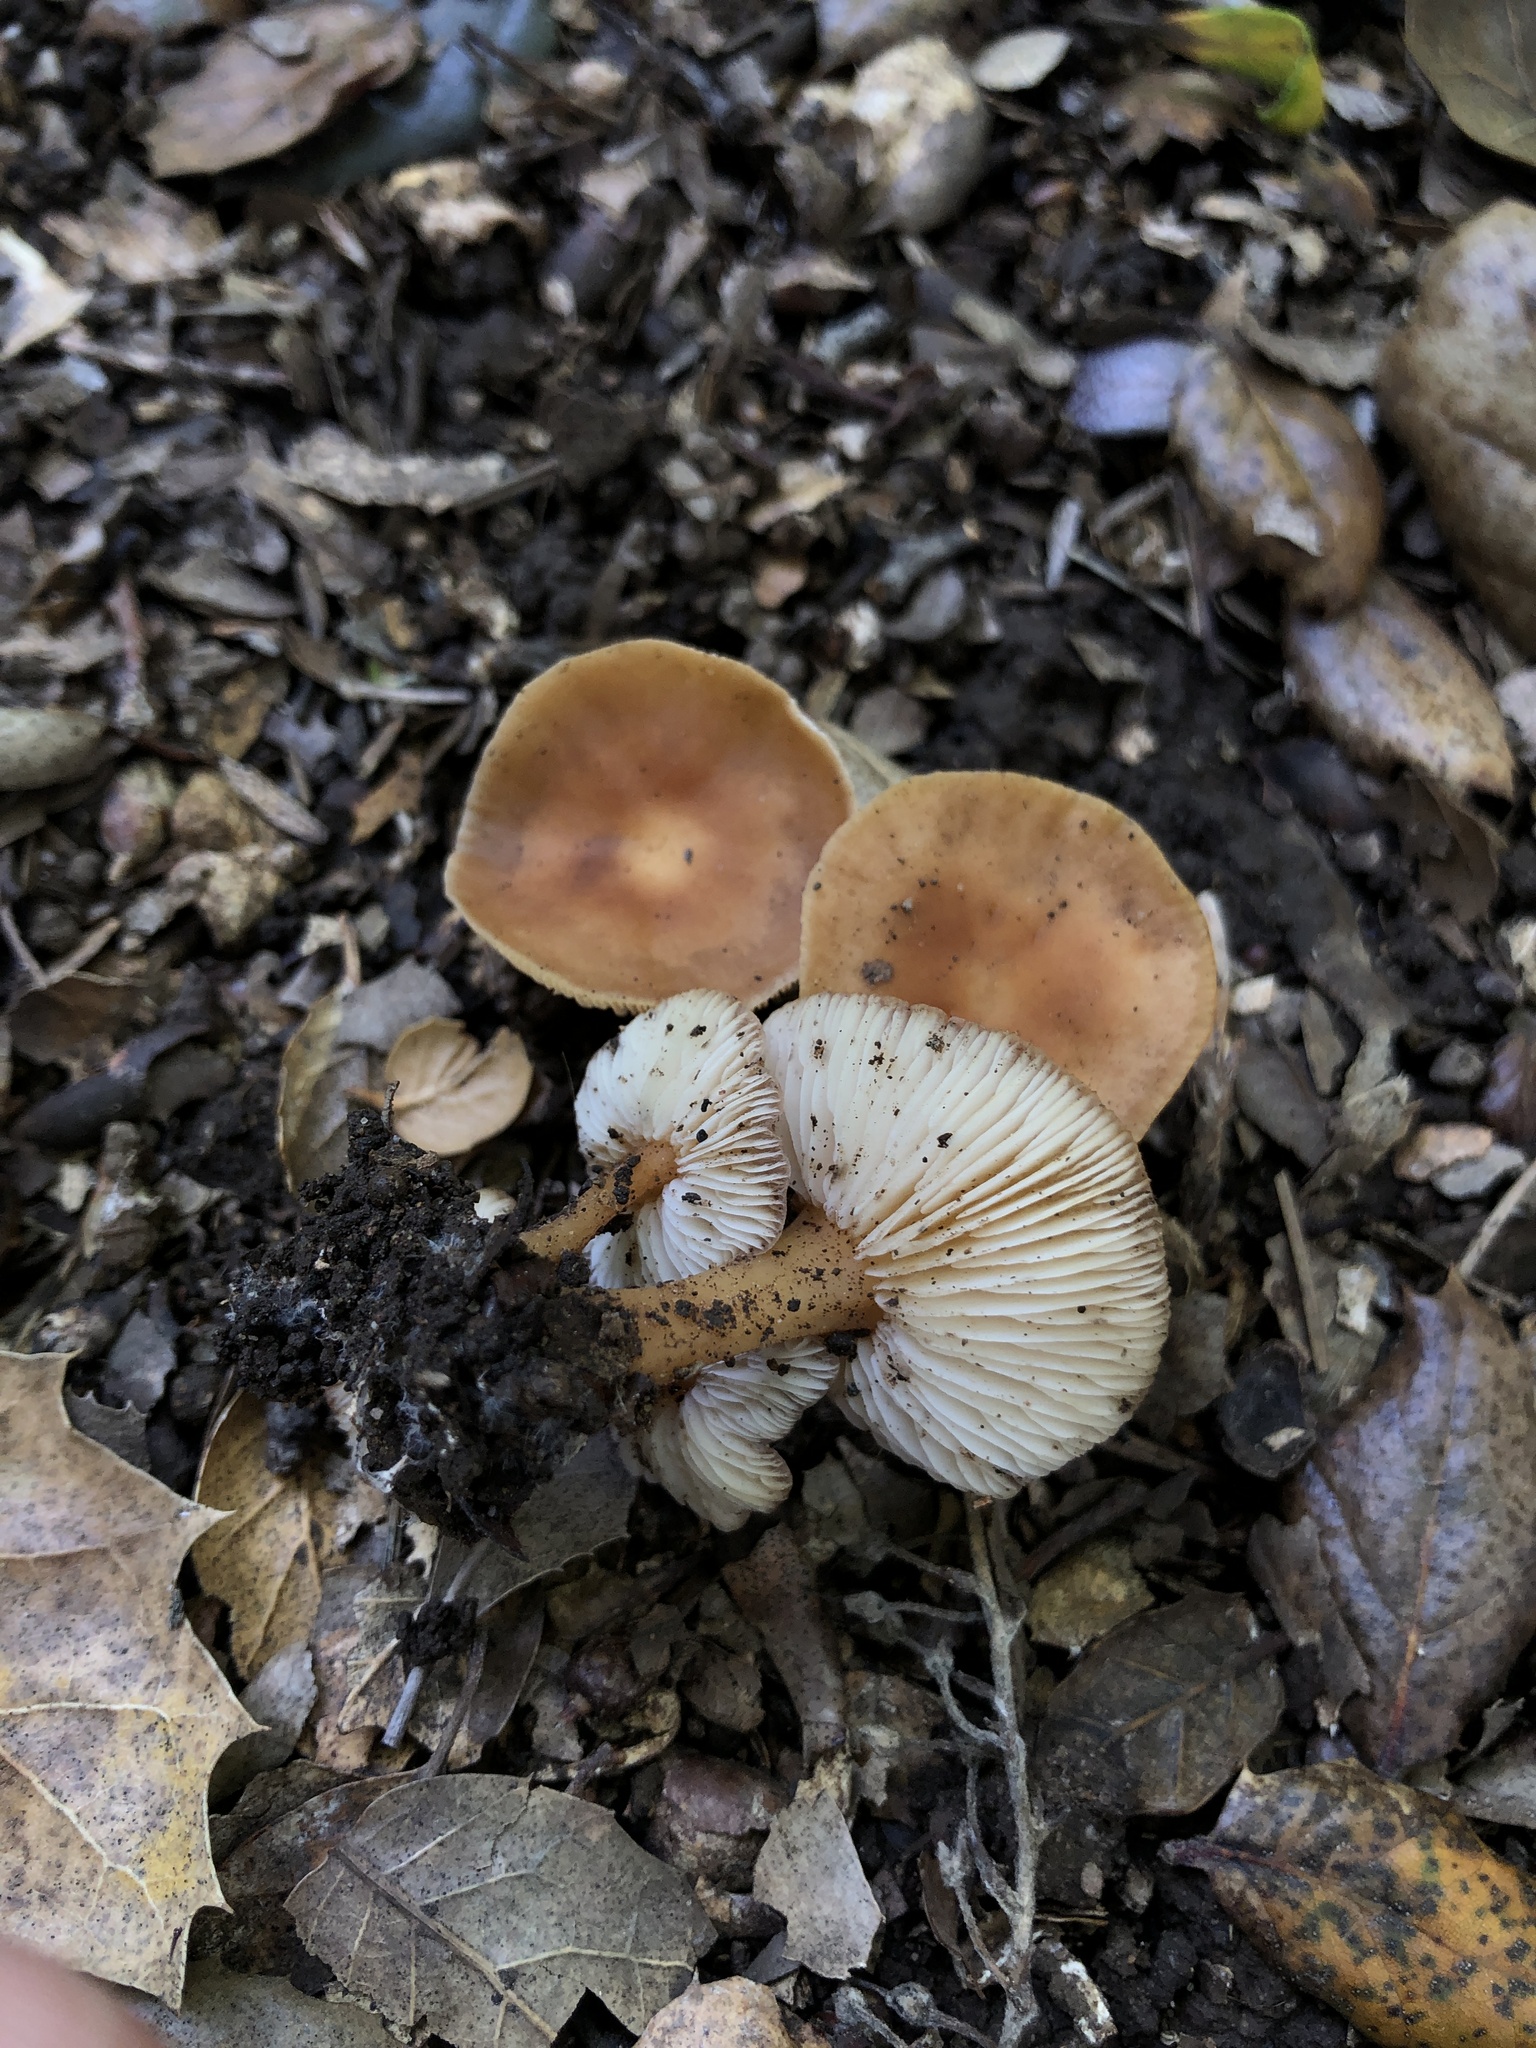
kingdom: Fungi
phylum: Basidiomycota
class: Agaricomycetes
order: Agaricales
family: Omphalotaceae
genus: Gymnopus
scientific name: Gymnopus dryophilus
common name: Penny top
